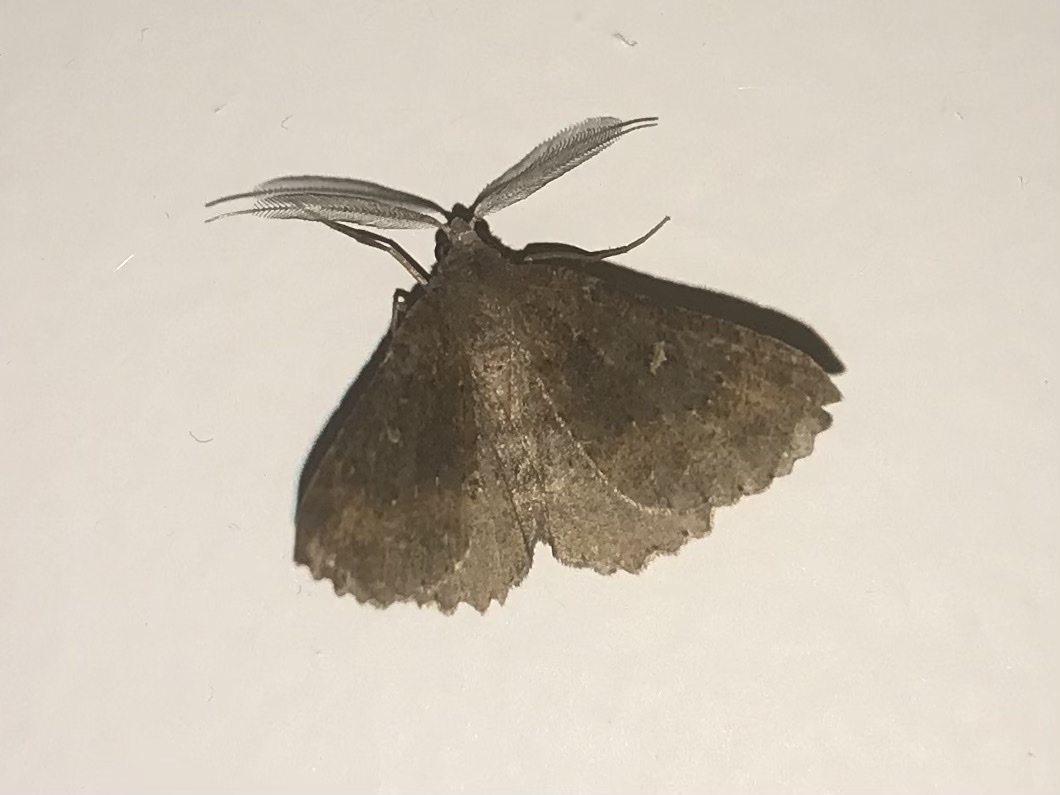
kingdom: Animalia
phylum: Arthropoda
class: Insecta
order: Lepidoptera
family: Geometridae
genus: Cleora
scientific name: Cleora scriptaria
